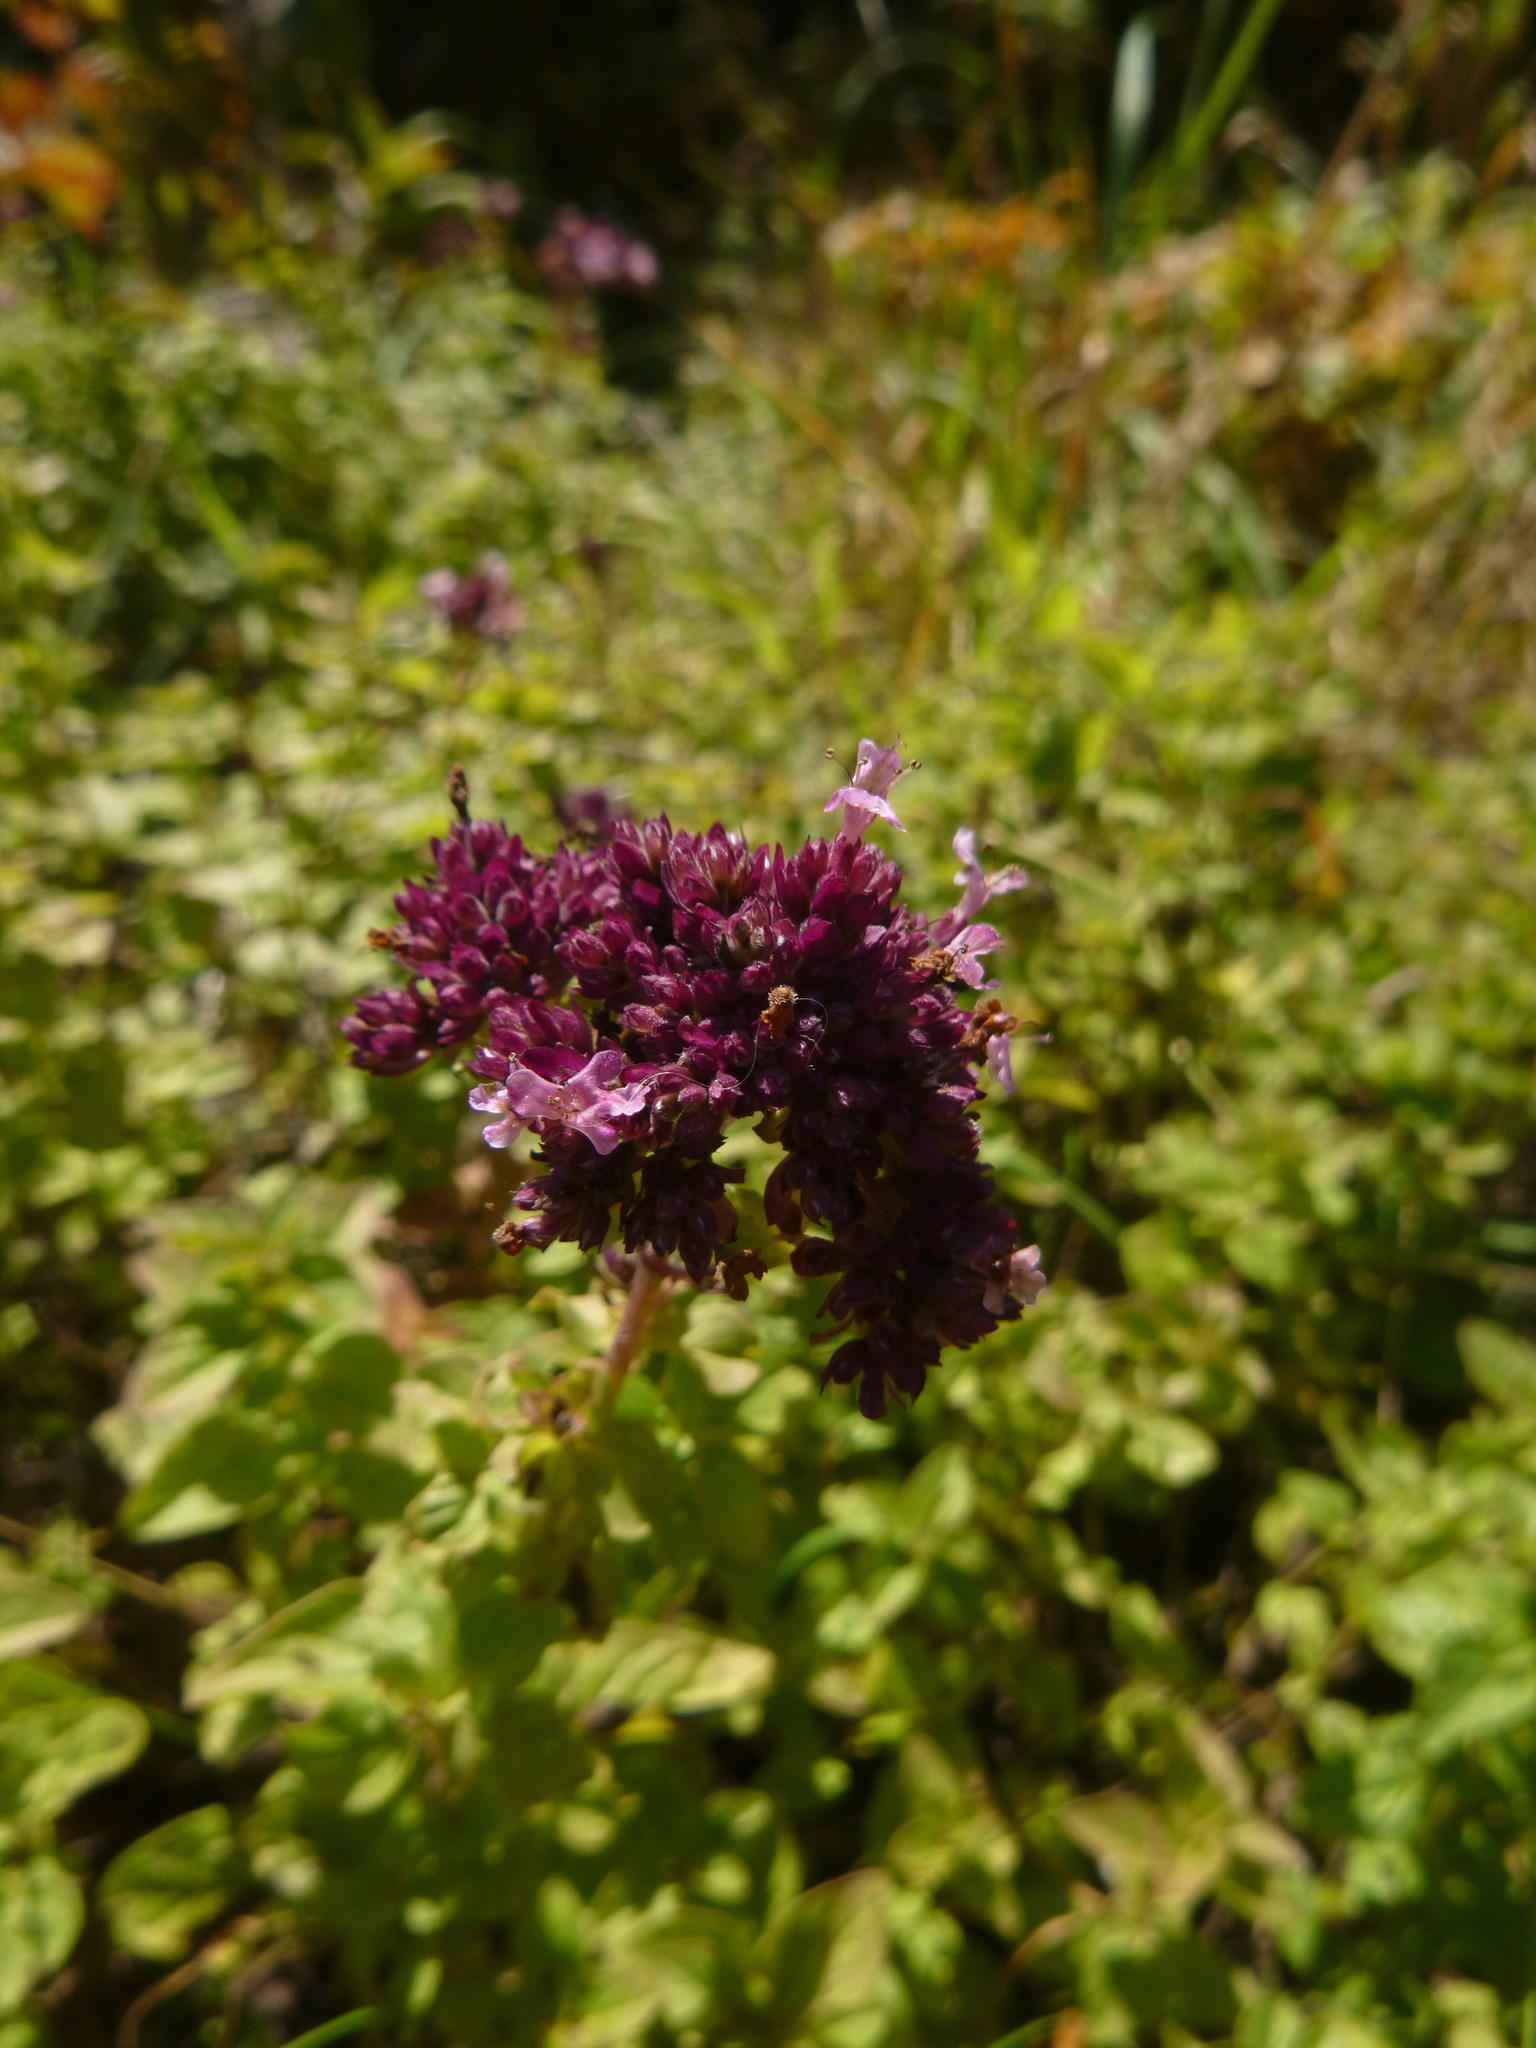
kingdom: Plantae
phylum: Tracheophyta
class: Magnoliopsida
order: Lamiales
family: Lamiaceae
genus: Origanum
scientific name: Origanum vulgare
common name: Wild marjoram
